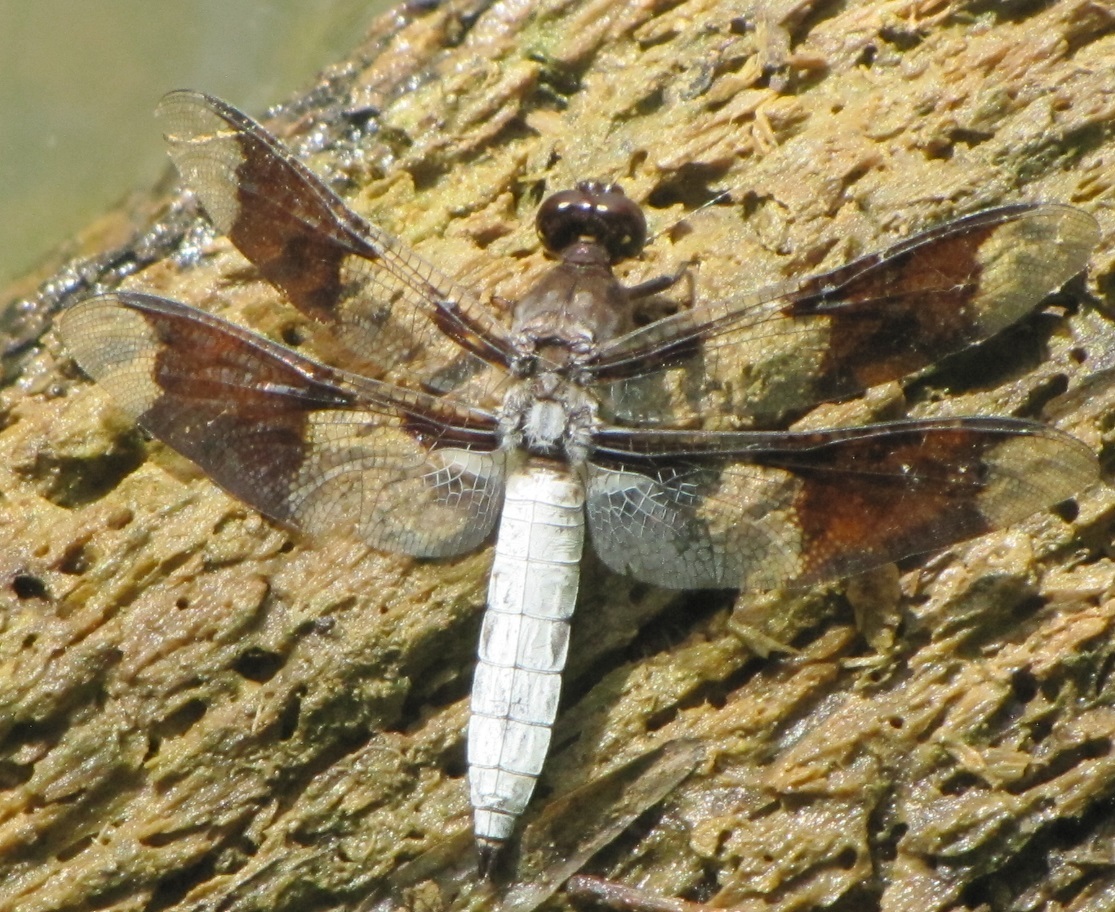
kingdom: Animalia
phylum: Arthropoda
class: Insecta
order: Odonata
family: Libellulidae
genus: Plathemis
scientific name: Plathemis lydia
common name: Common whitetail
